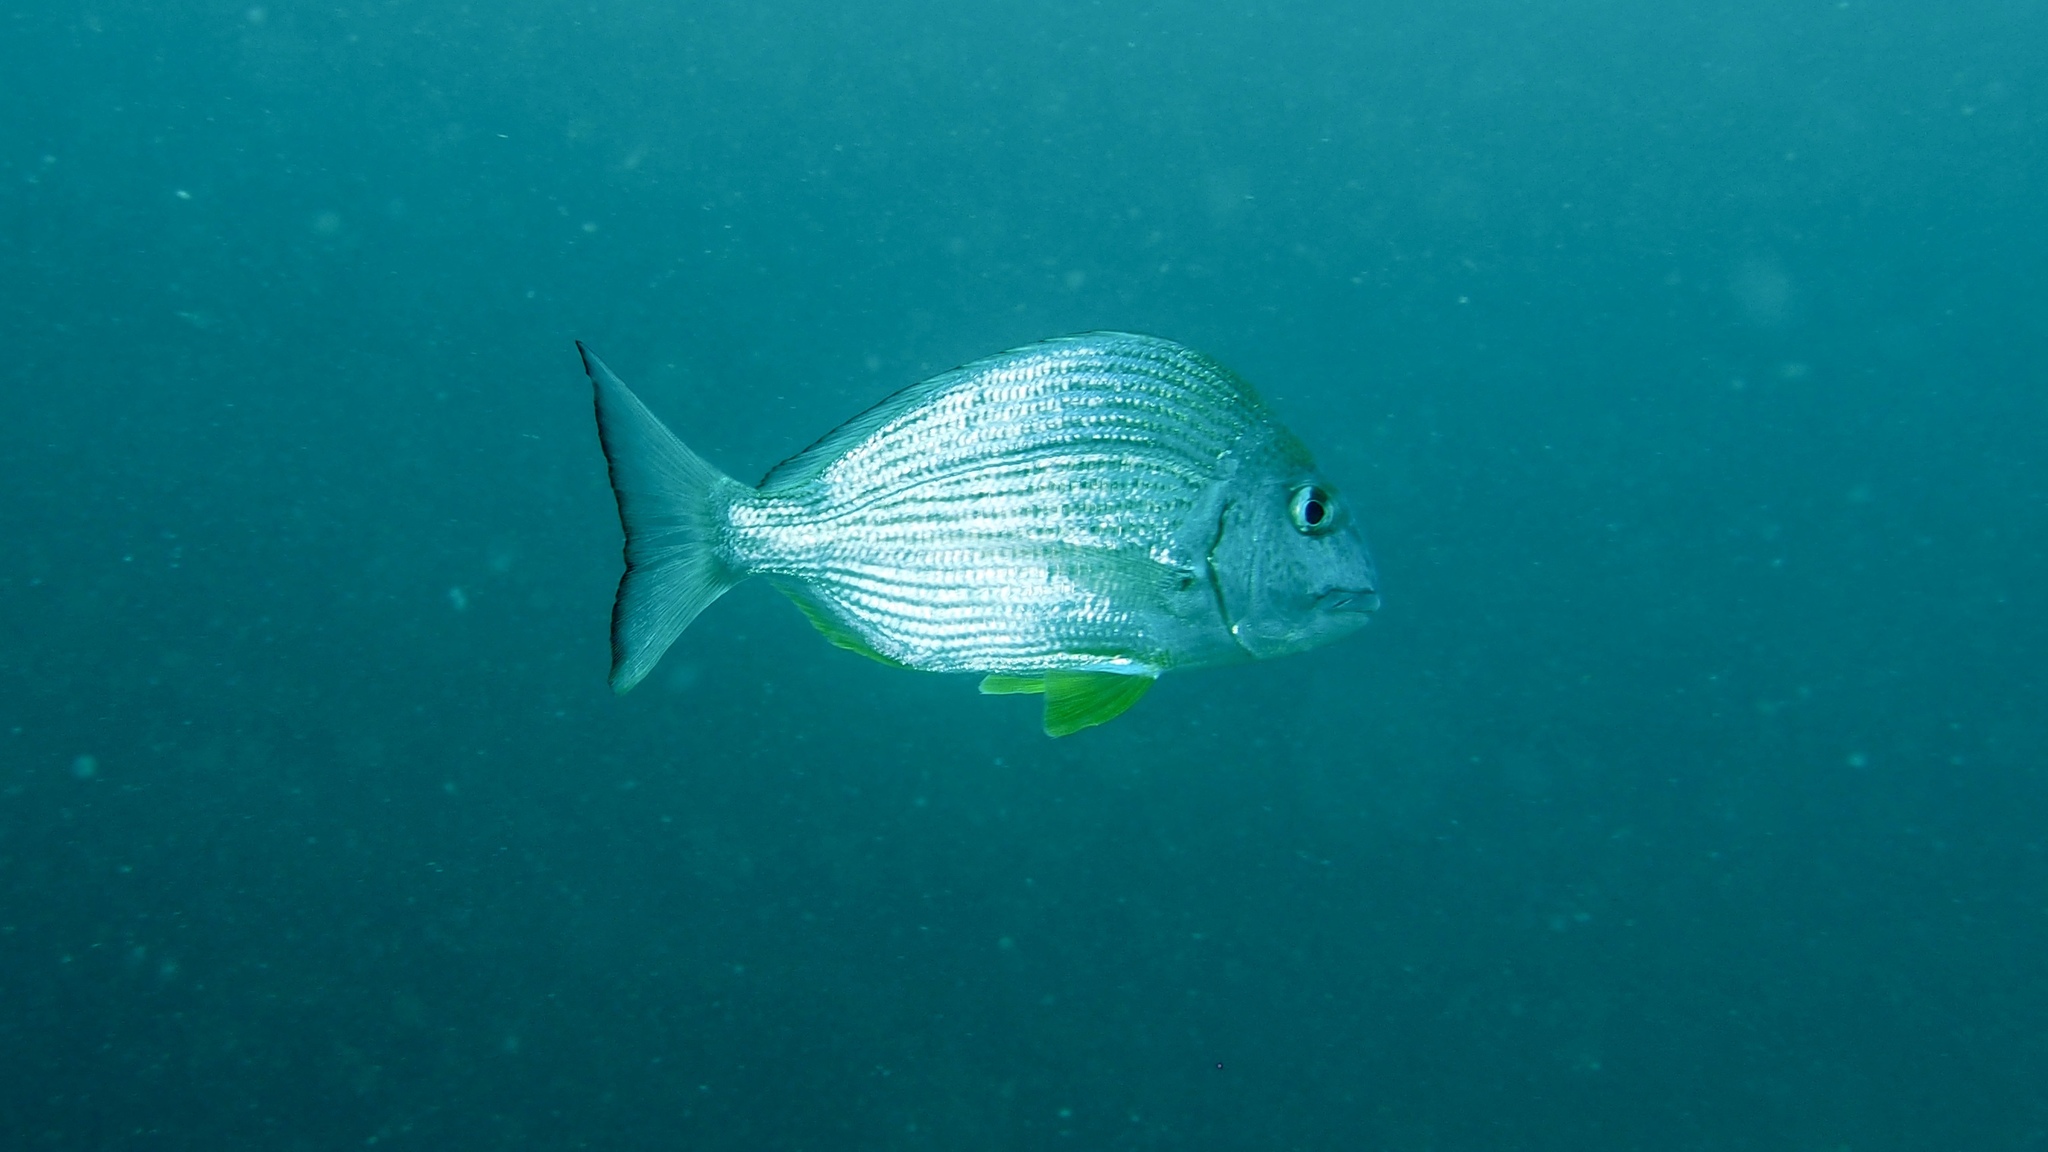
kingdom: Animalia
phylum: Chordata
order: Perciformes
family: Sparidae
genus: Rhabdosargus
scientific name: Rhabdosargus sarba
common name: Goldlined seabream
